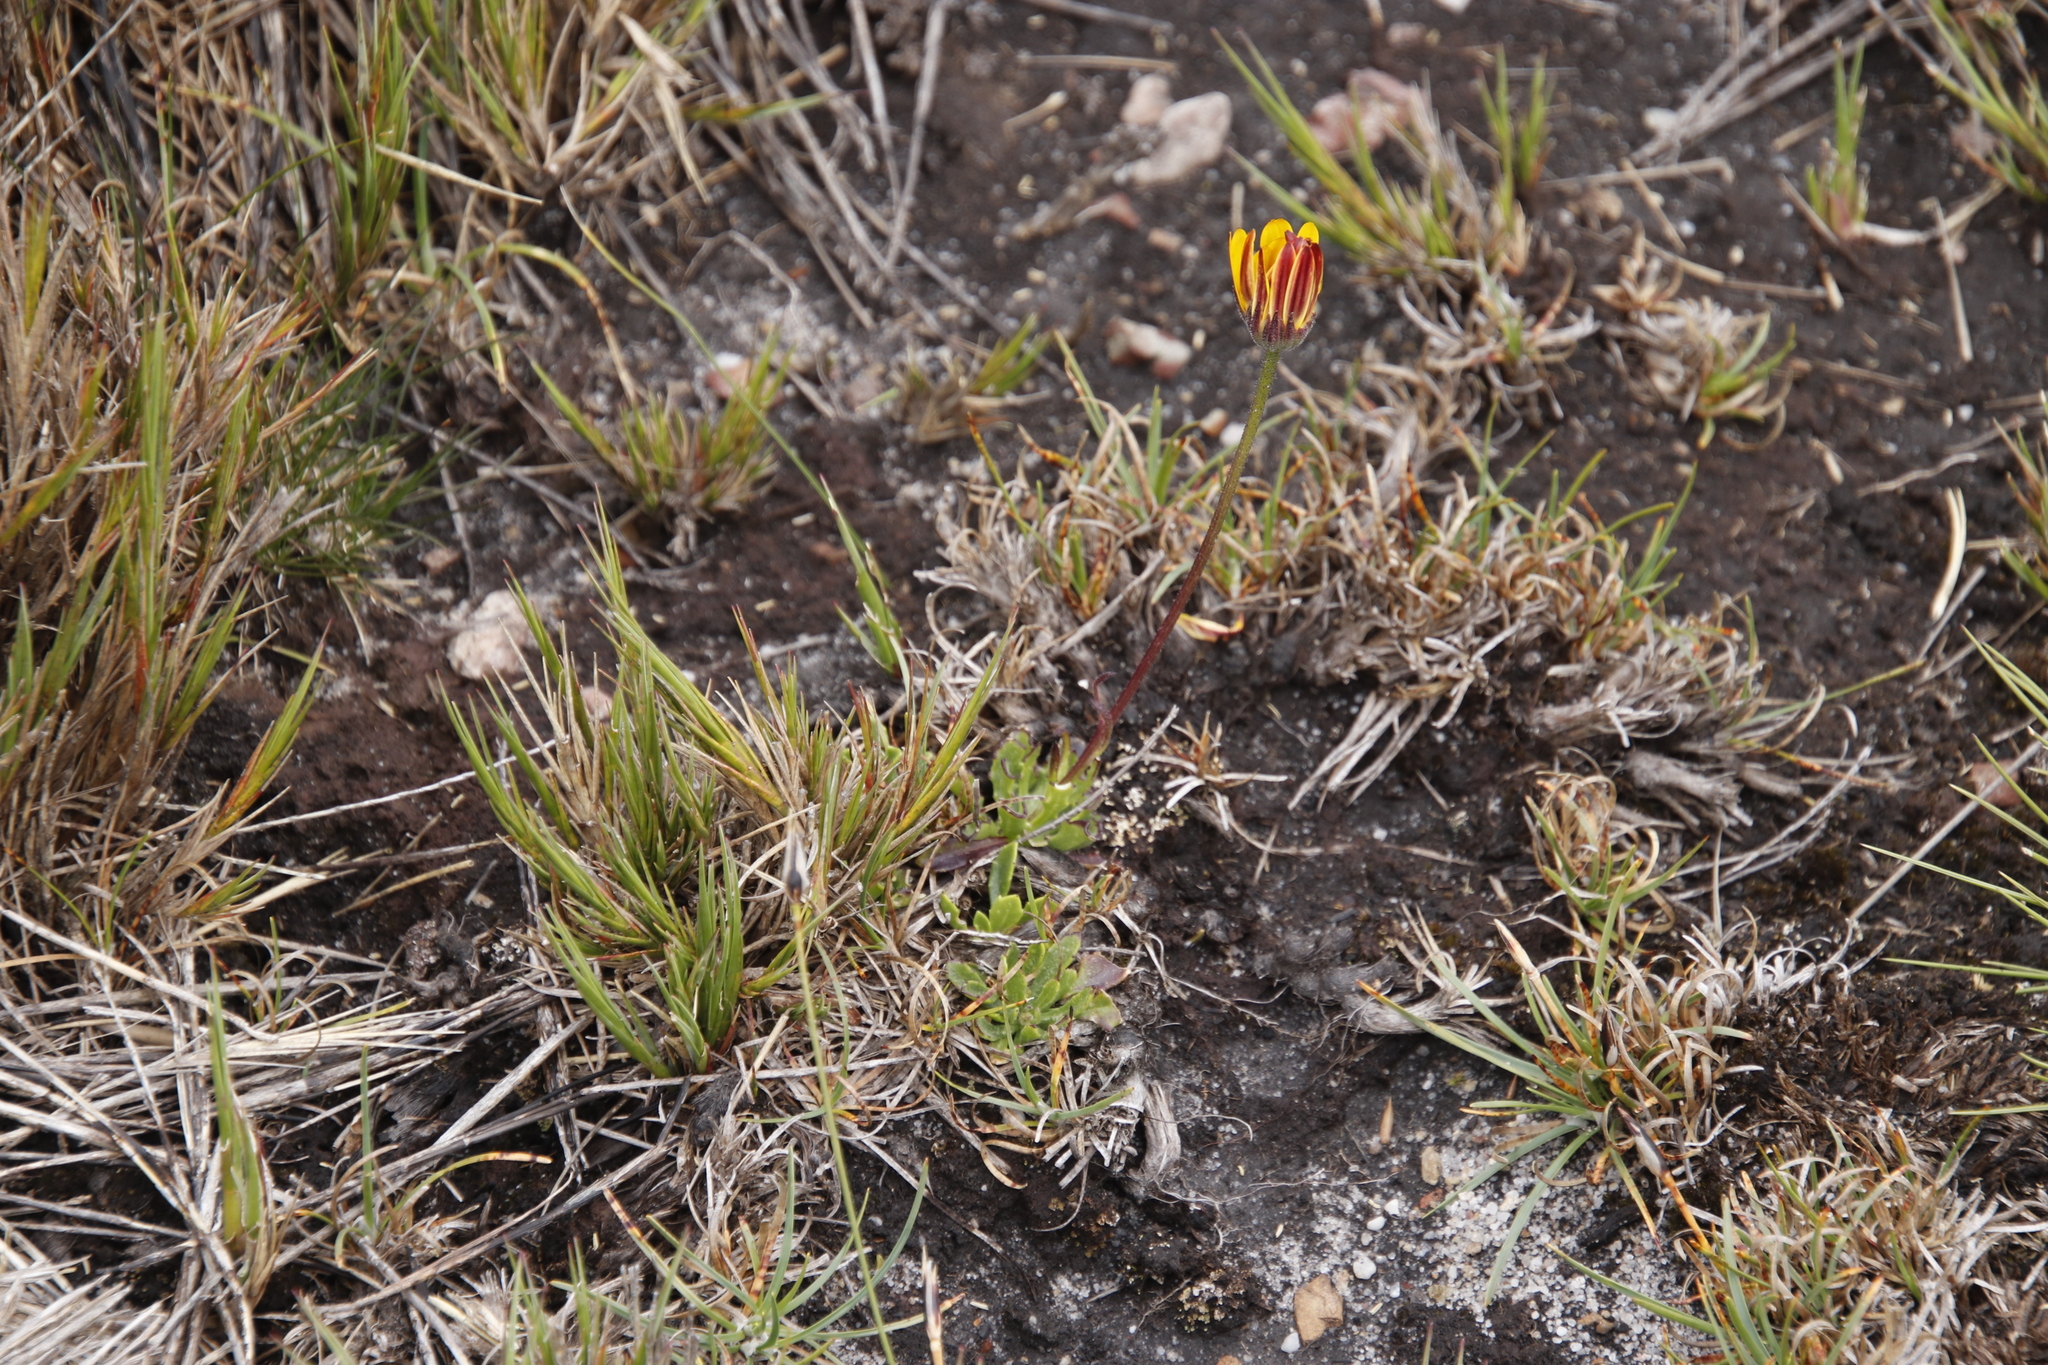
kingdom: Plantae
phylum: Tracheophyta
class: Magnoliopsida
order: Asterales
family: Asteraceae
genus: Dimorphotheca
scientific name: Dimorphotheca montana
